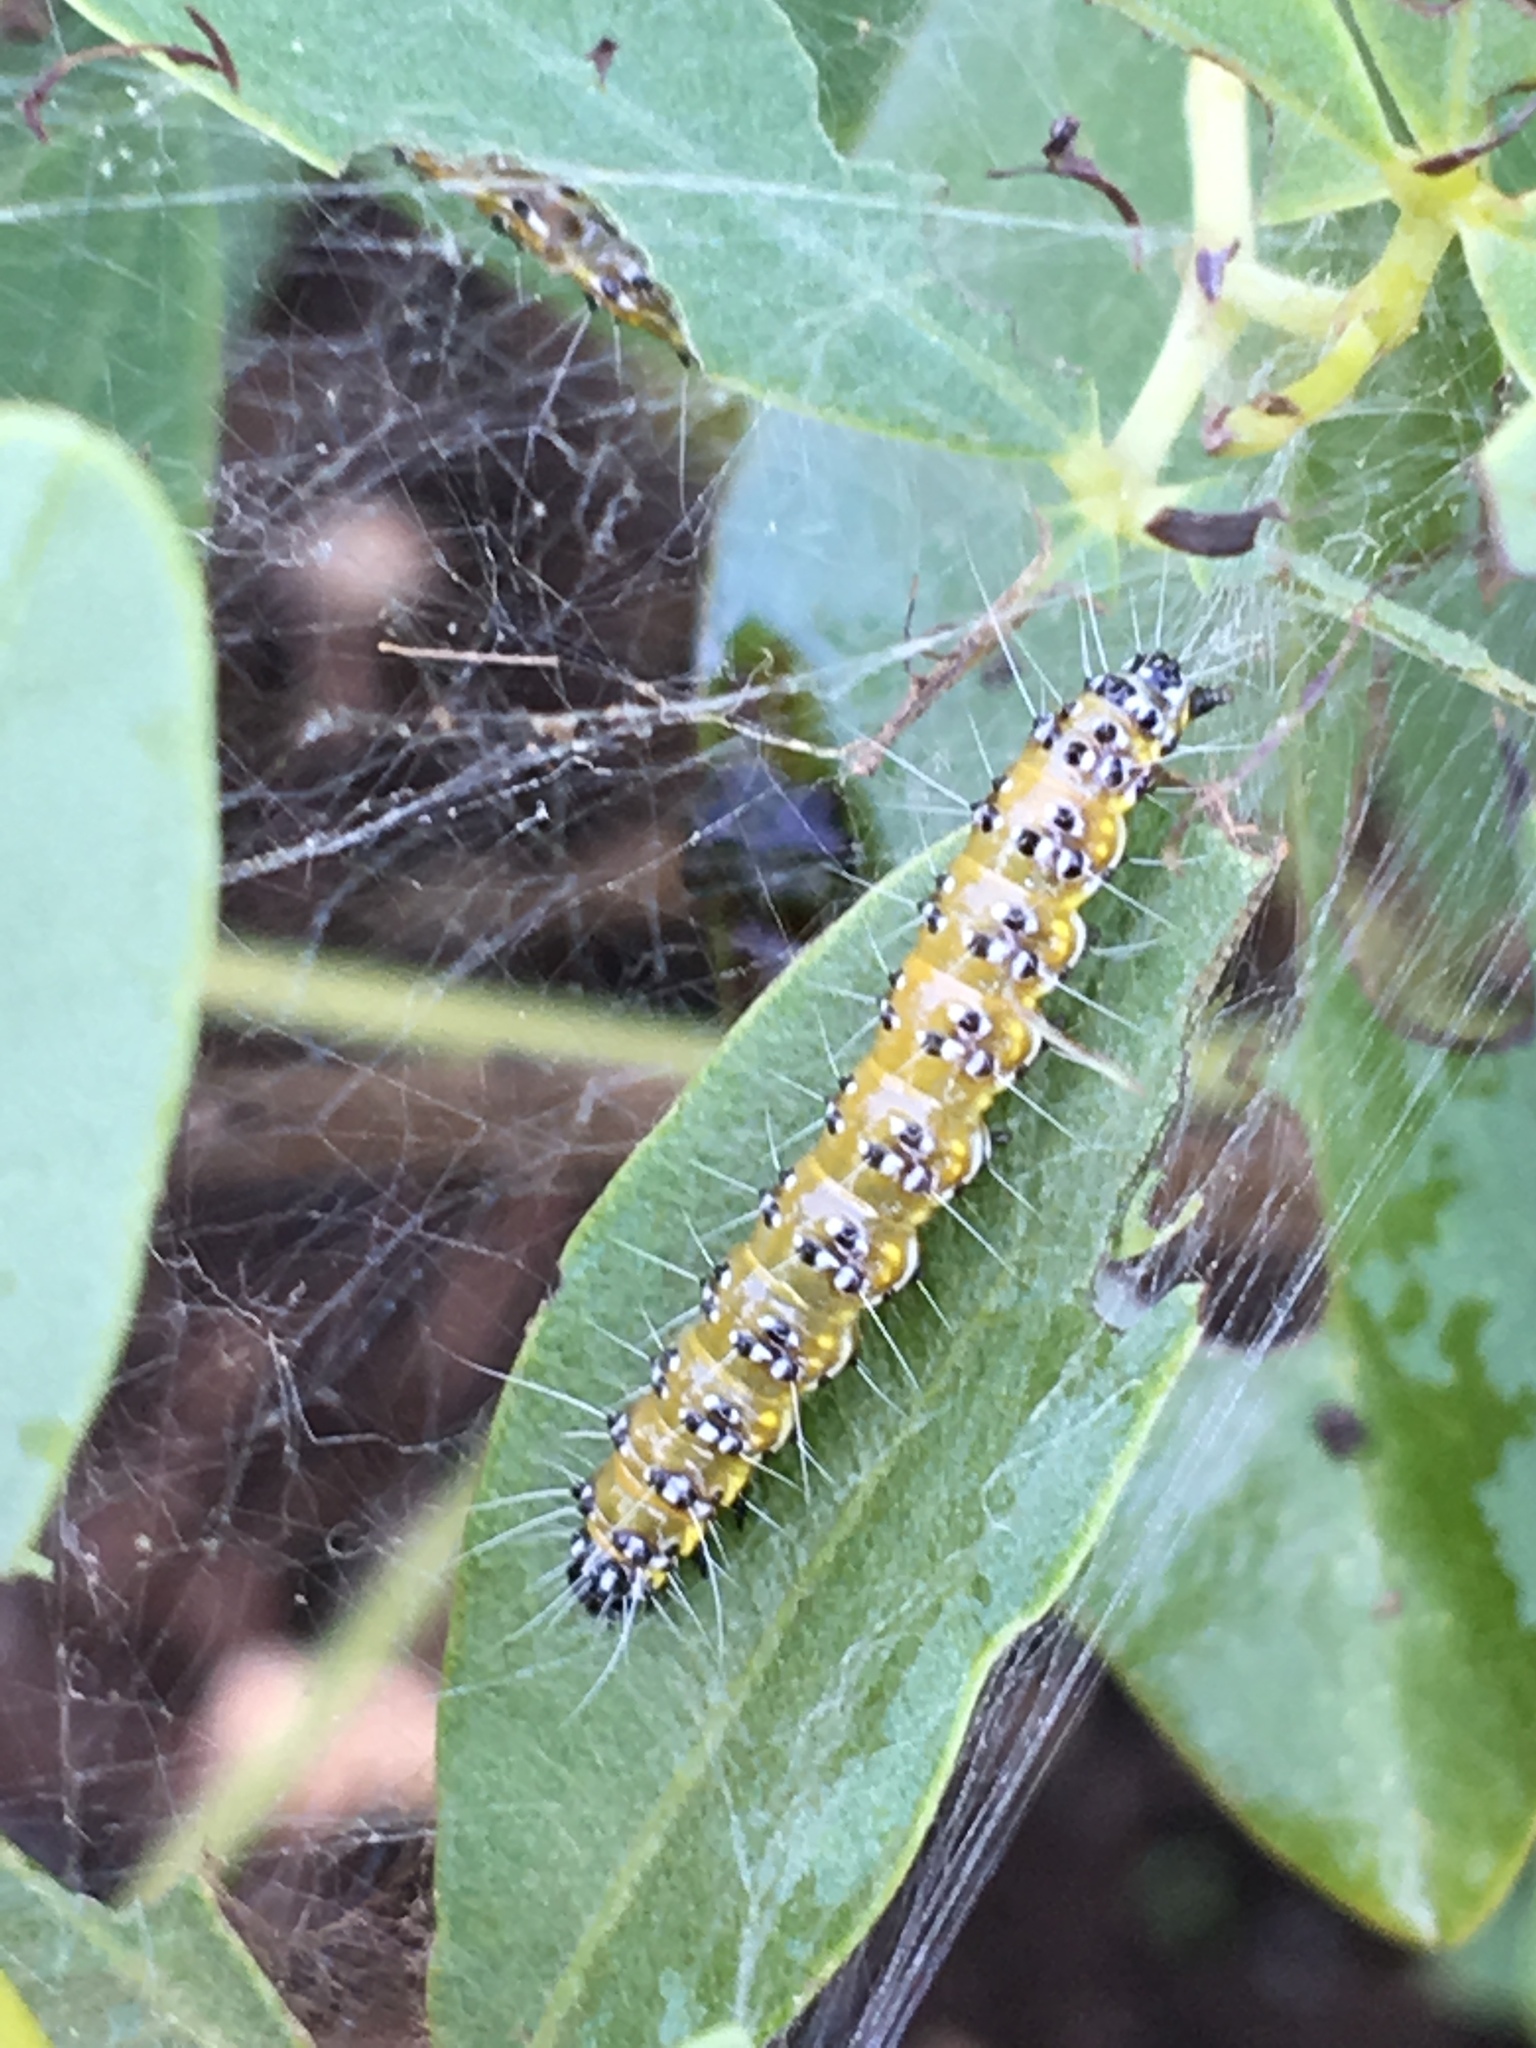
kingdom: Animalia
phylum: Arthropoda
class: Insecta
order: Lepidoptera
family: Crambidae
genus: Uresiphita
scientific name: Uresiphita reversalis
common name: Genista broom moth
